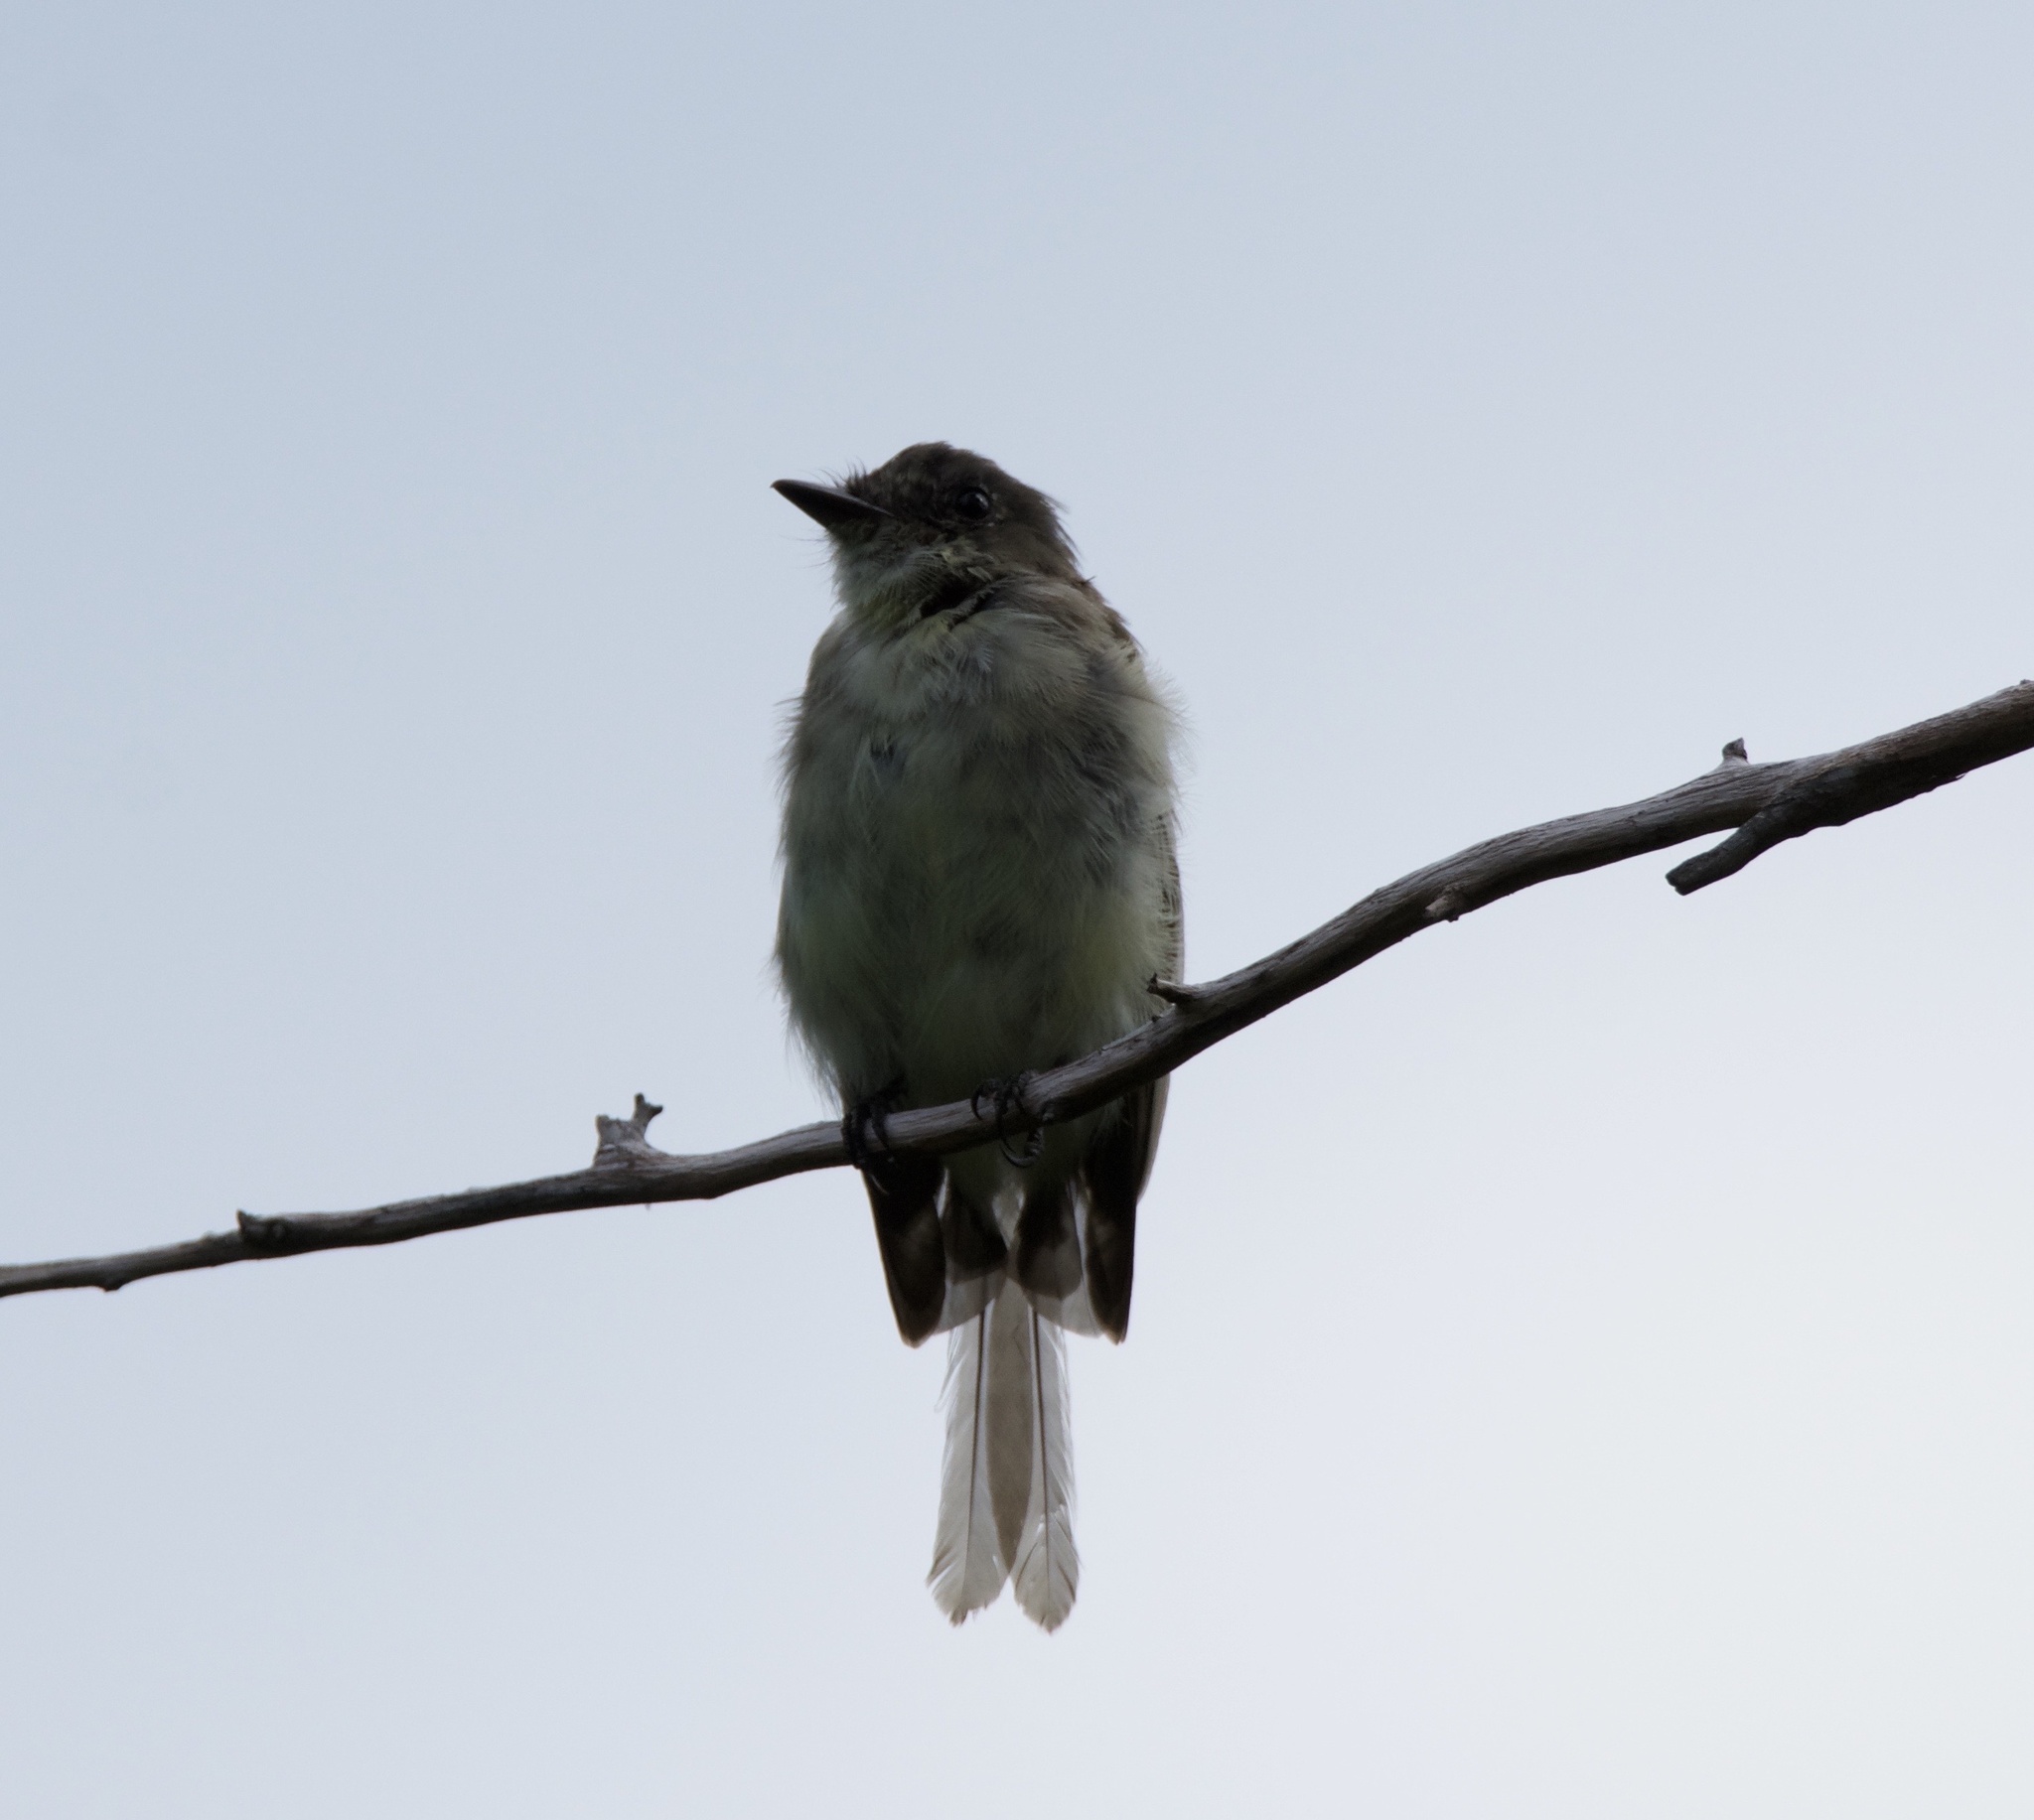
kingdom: Animalia
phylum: Chordata
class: Aves
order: Passeriformes
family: Tyrannidae
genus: Sayornis
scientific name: Sayornis phoebe
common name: Eastern phoebe
